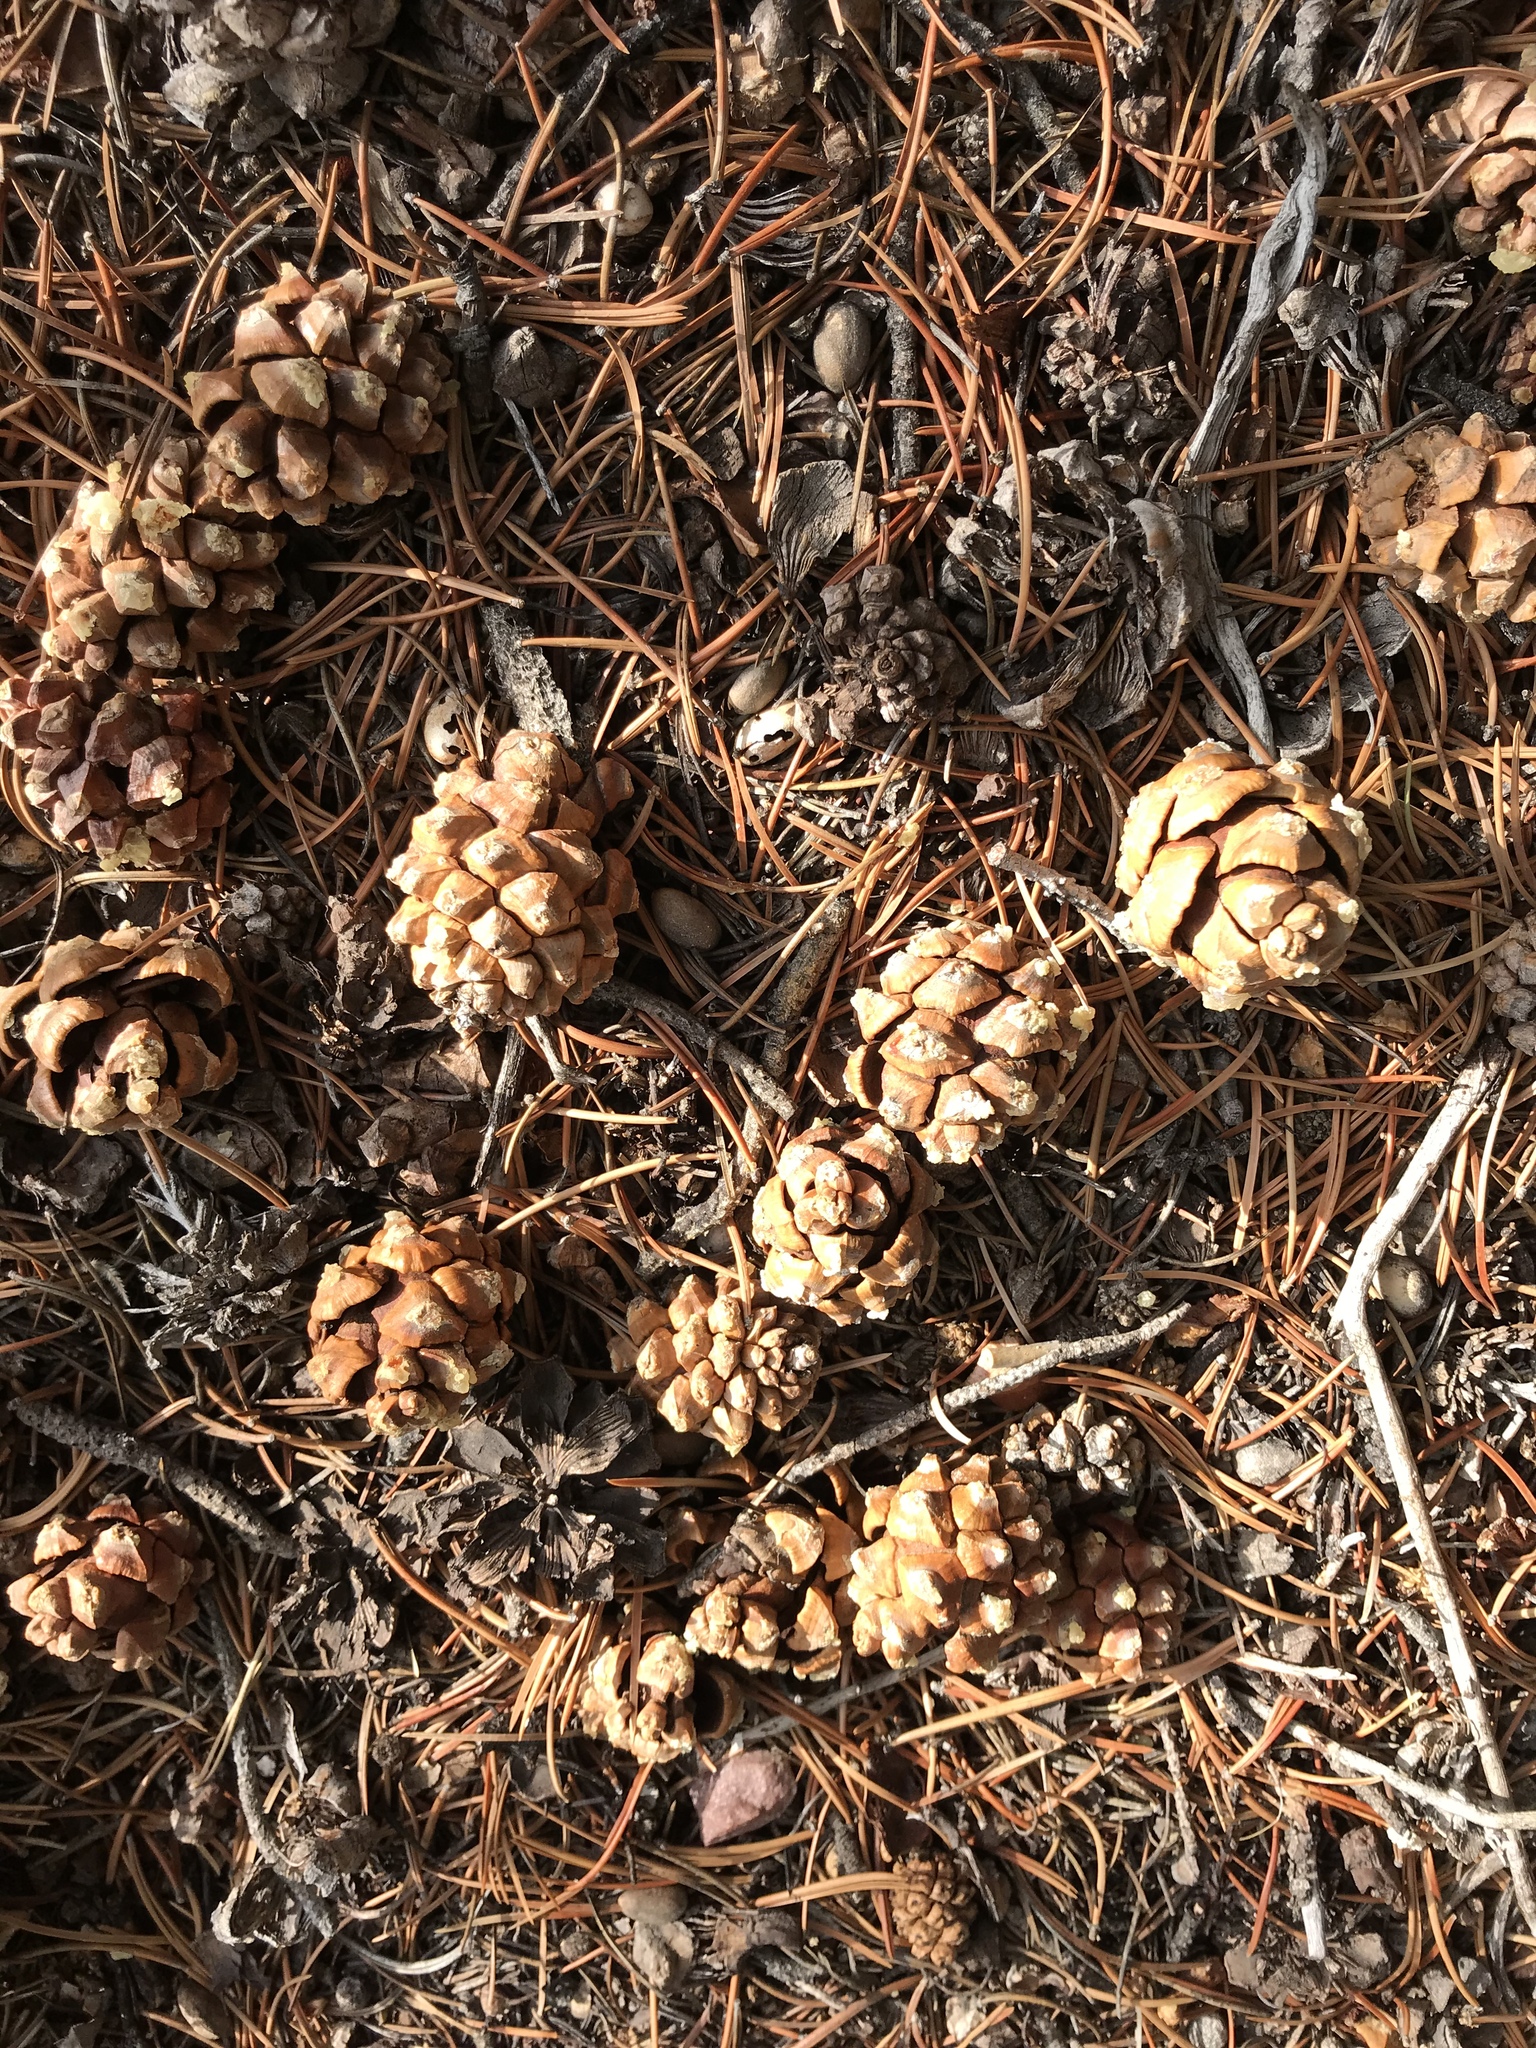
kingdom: Plantae
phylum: Tracheophyta
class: Pinopsida
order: Pinales
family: Pinaceae
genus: Pinus
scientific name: Pinus edulis
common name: Colorado pinyon
